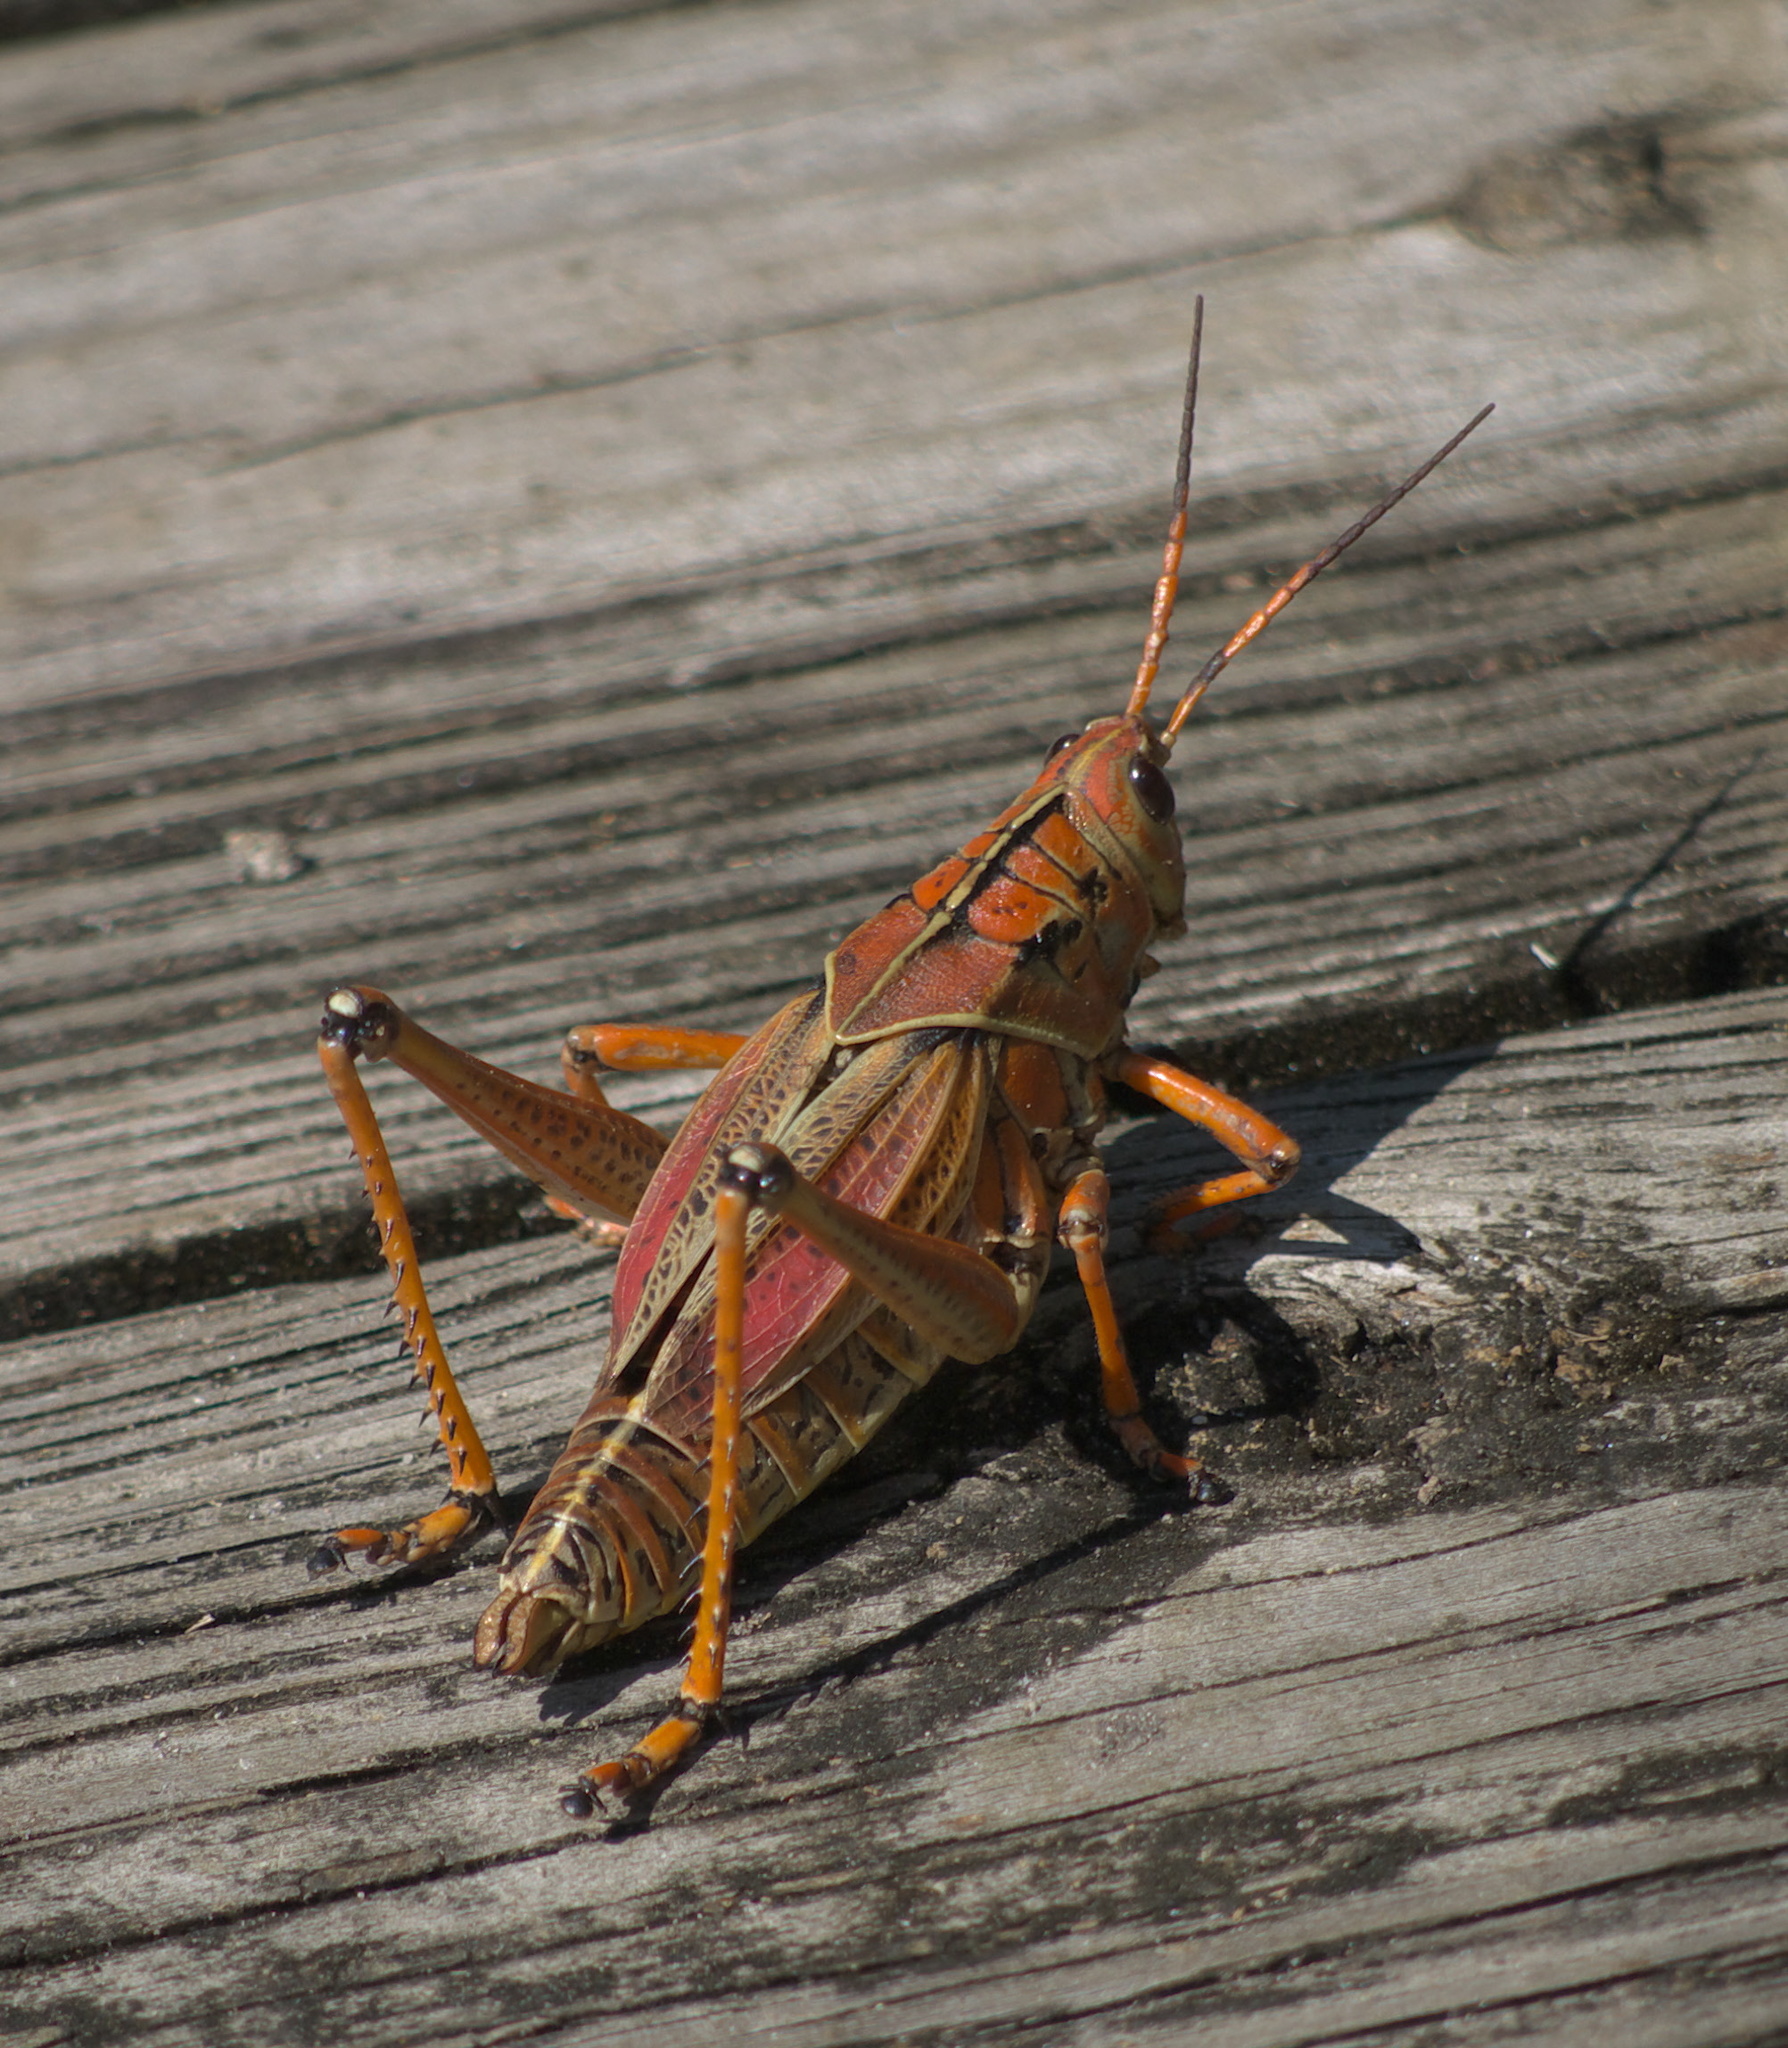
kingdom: Animalia
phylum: Arthropoda
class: Insecta
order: Orthoptera
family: Romaleidae
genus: Romalea
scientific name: Romalea microptera
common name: Eastern lubber grasshopper
